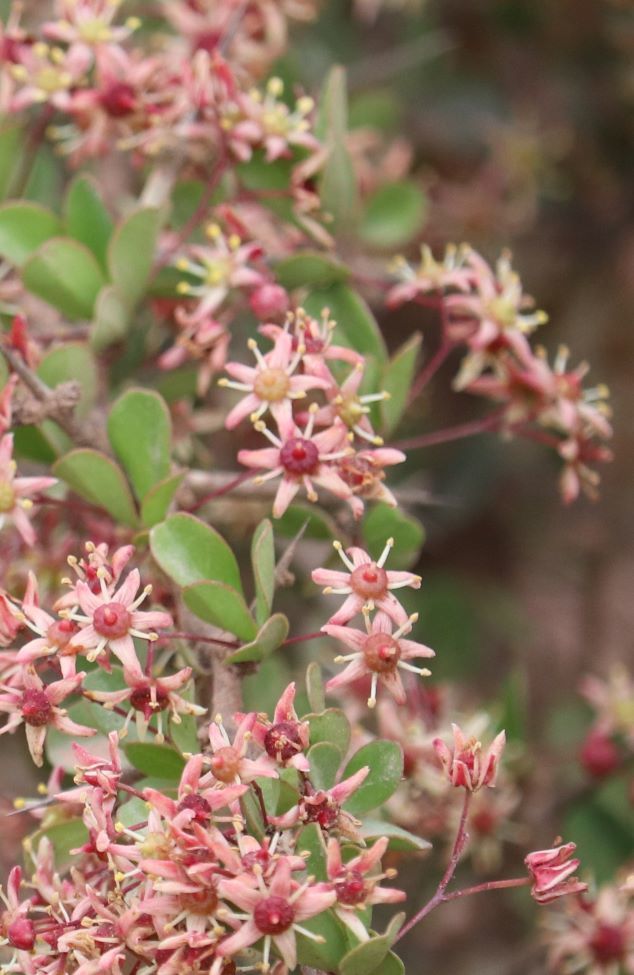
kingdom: Plantae
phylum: Tracheophyta
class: Magnoliopsida
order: Celastrales
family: Celastraceae
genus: Putterlickia
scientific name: Putterlickia pyracantha
